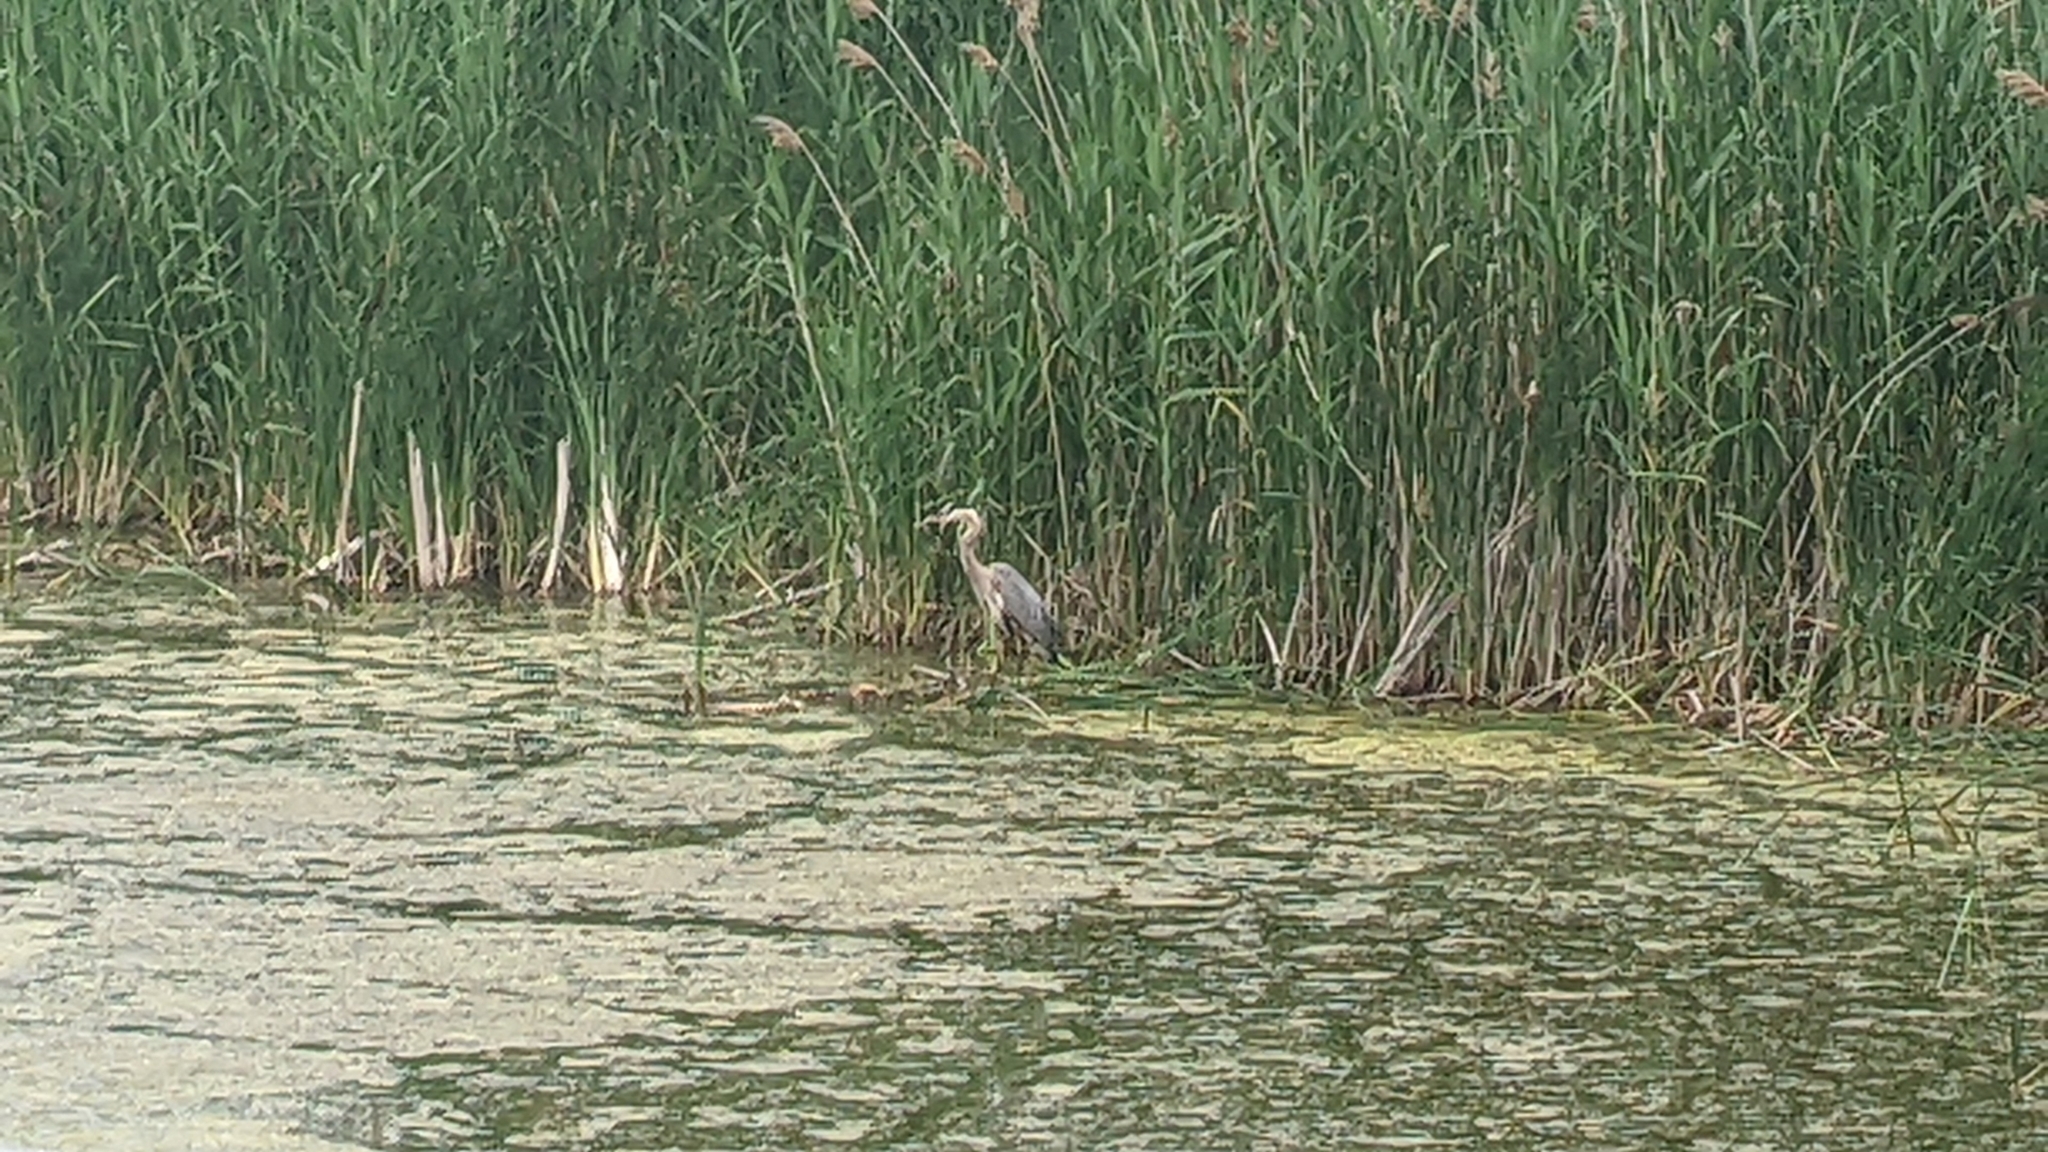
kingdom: Animalia
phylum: Chordata
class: Aves
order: Pelecaniformes
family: Ardeidae
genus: Ardea
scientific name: Ardea herodias
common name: Great blue heron
